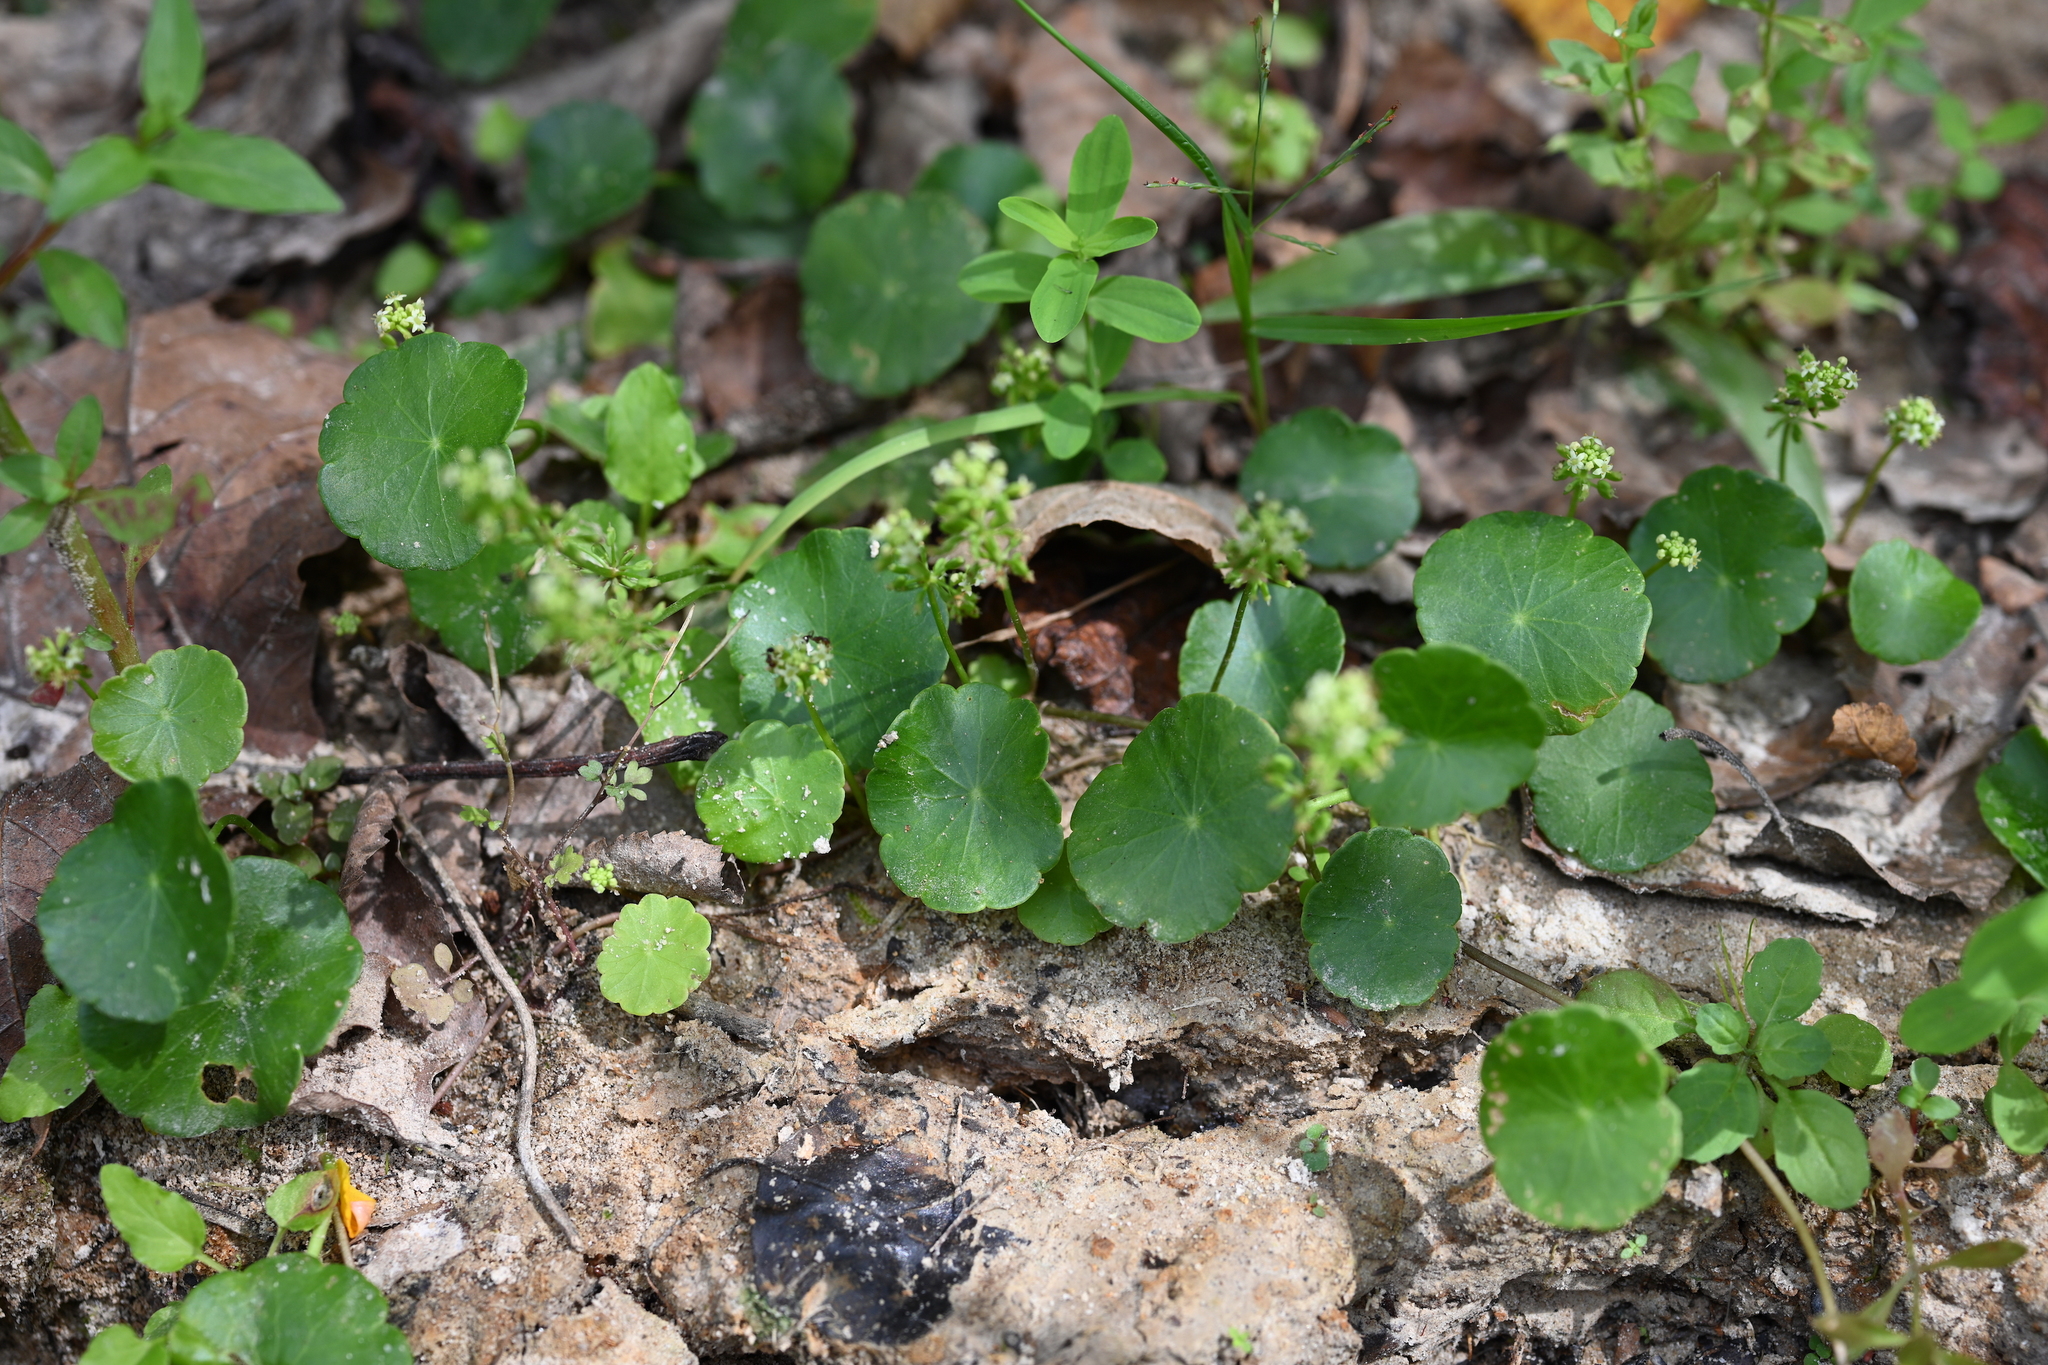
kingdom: Plantae
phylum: Tracheophyta
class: Magnoliopsida
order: Apiales
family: Araliaceae
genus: Hydrocotyle
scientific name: Hydrocotyle verticillata
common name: Whorled marshpennywort
